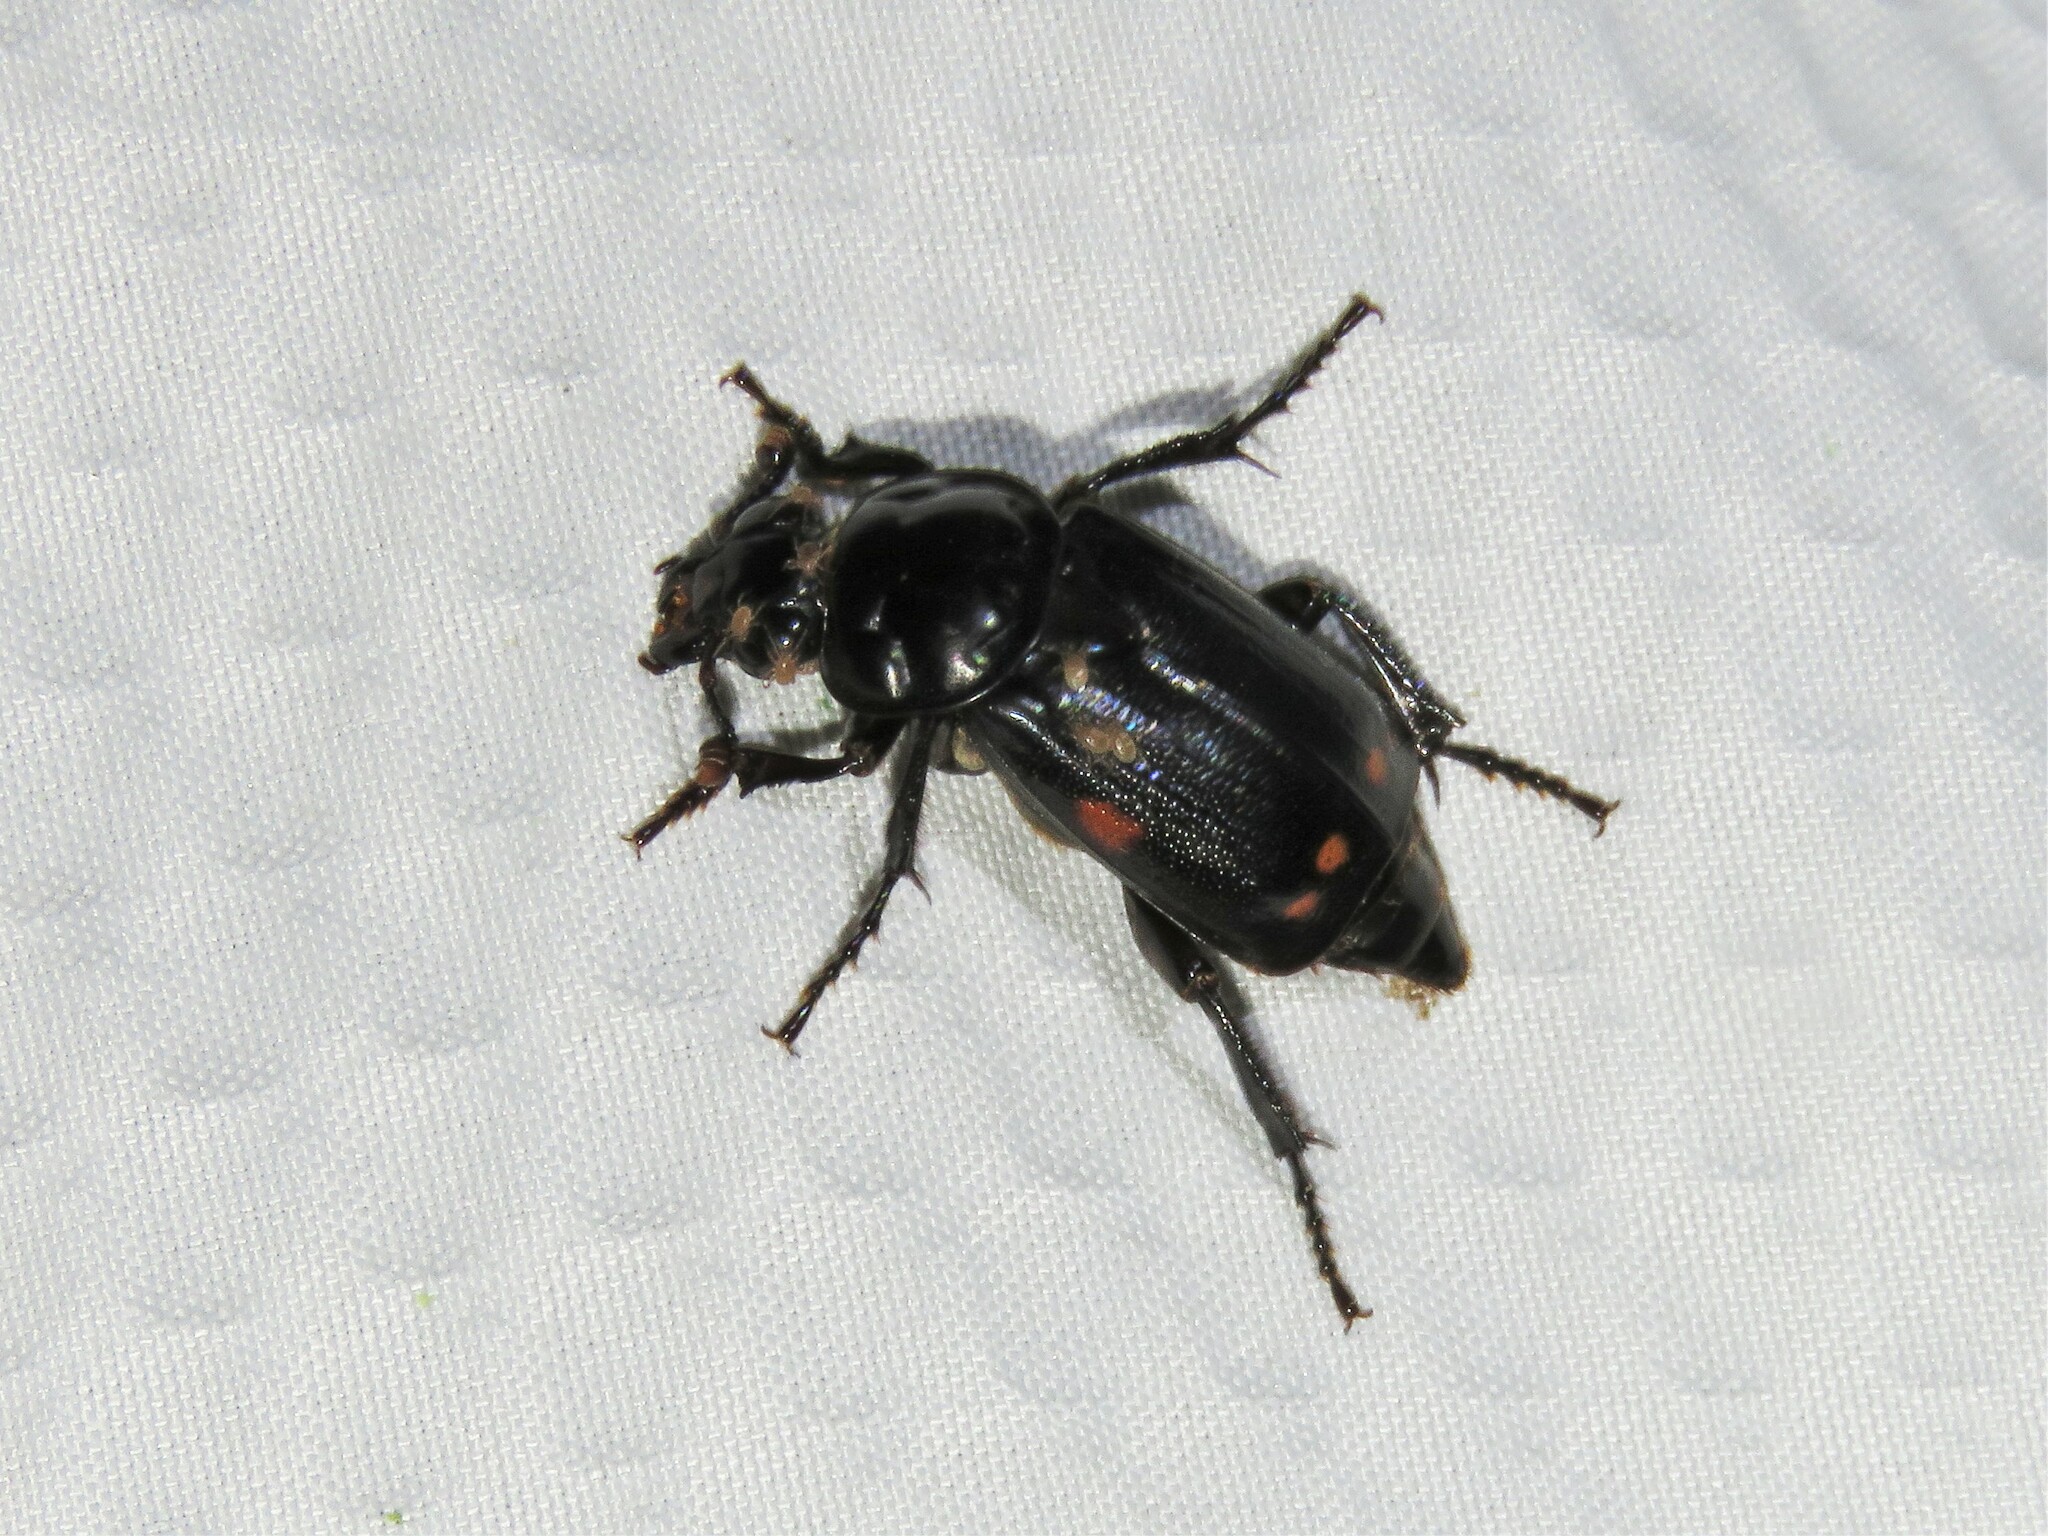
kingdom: Animalia
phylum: Arthropoda
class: Insecta
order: Coleoptera
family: Staphylinidae
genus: Nicrophorus
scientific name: Nicrophorus pustulatus
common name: Pustulated carrion beetle
